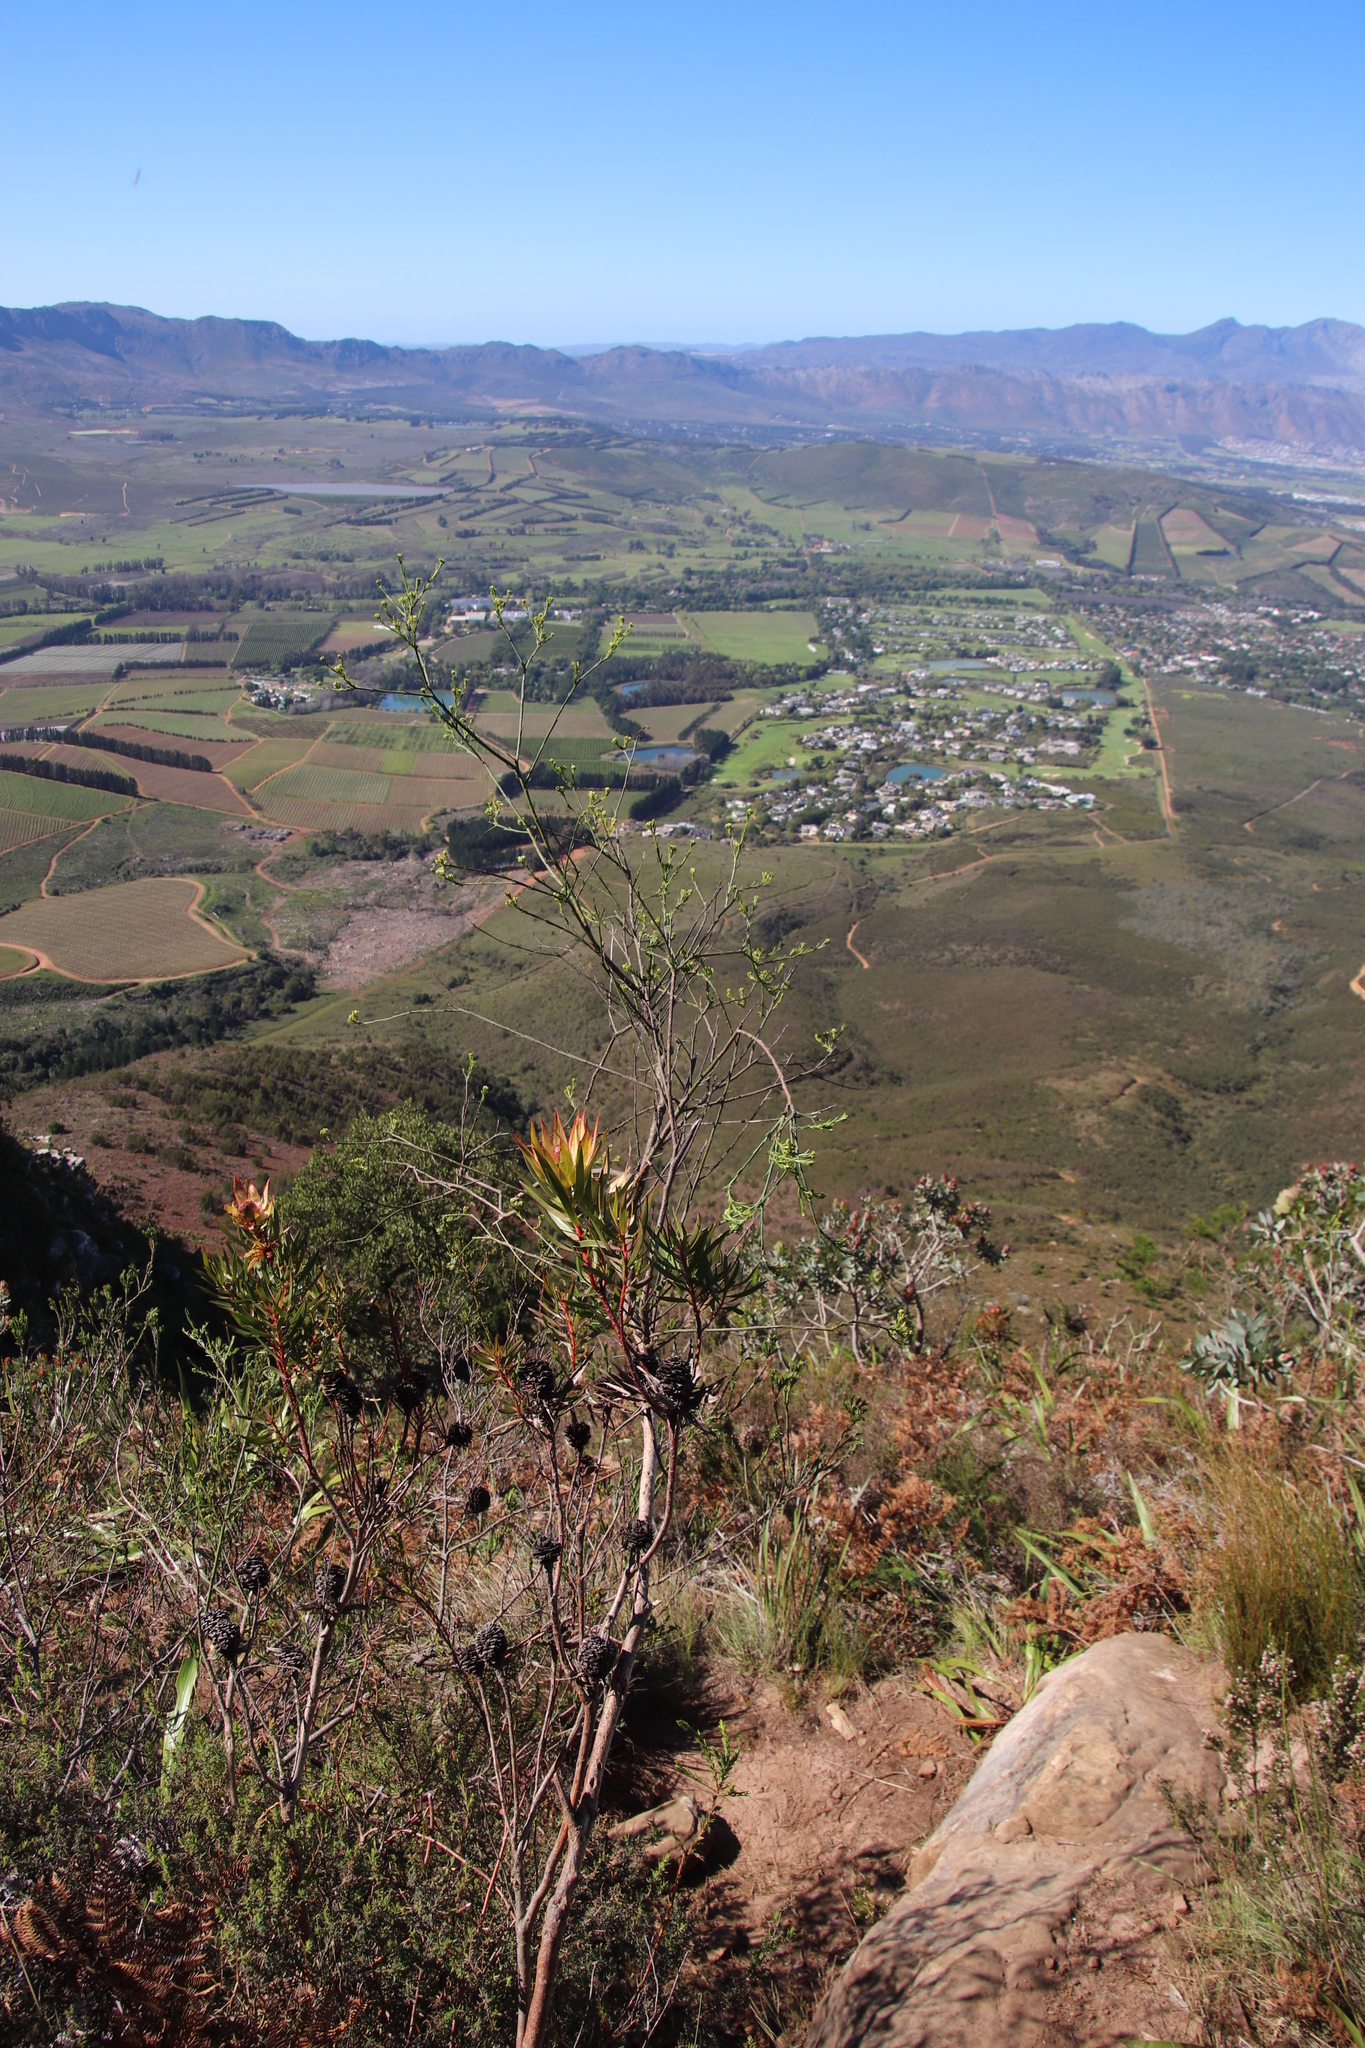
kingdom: Plantae
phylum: Tracheophyta
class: Magnoliopsida
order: Santalales
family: Thesiaceae
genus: Thesium
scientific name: Thesium strictum
